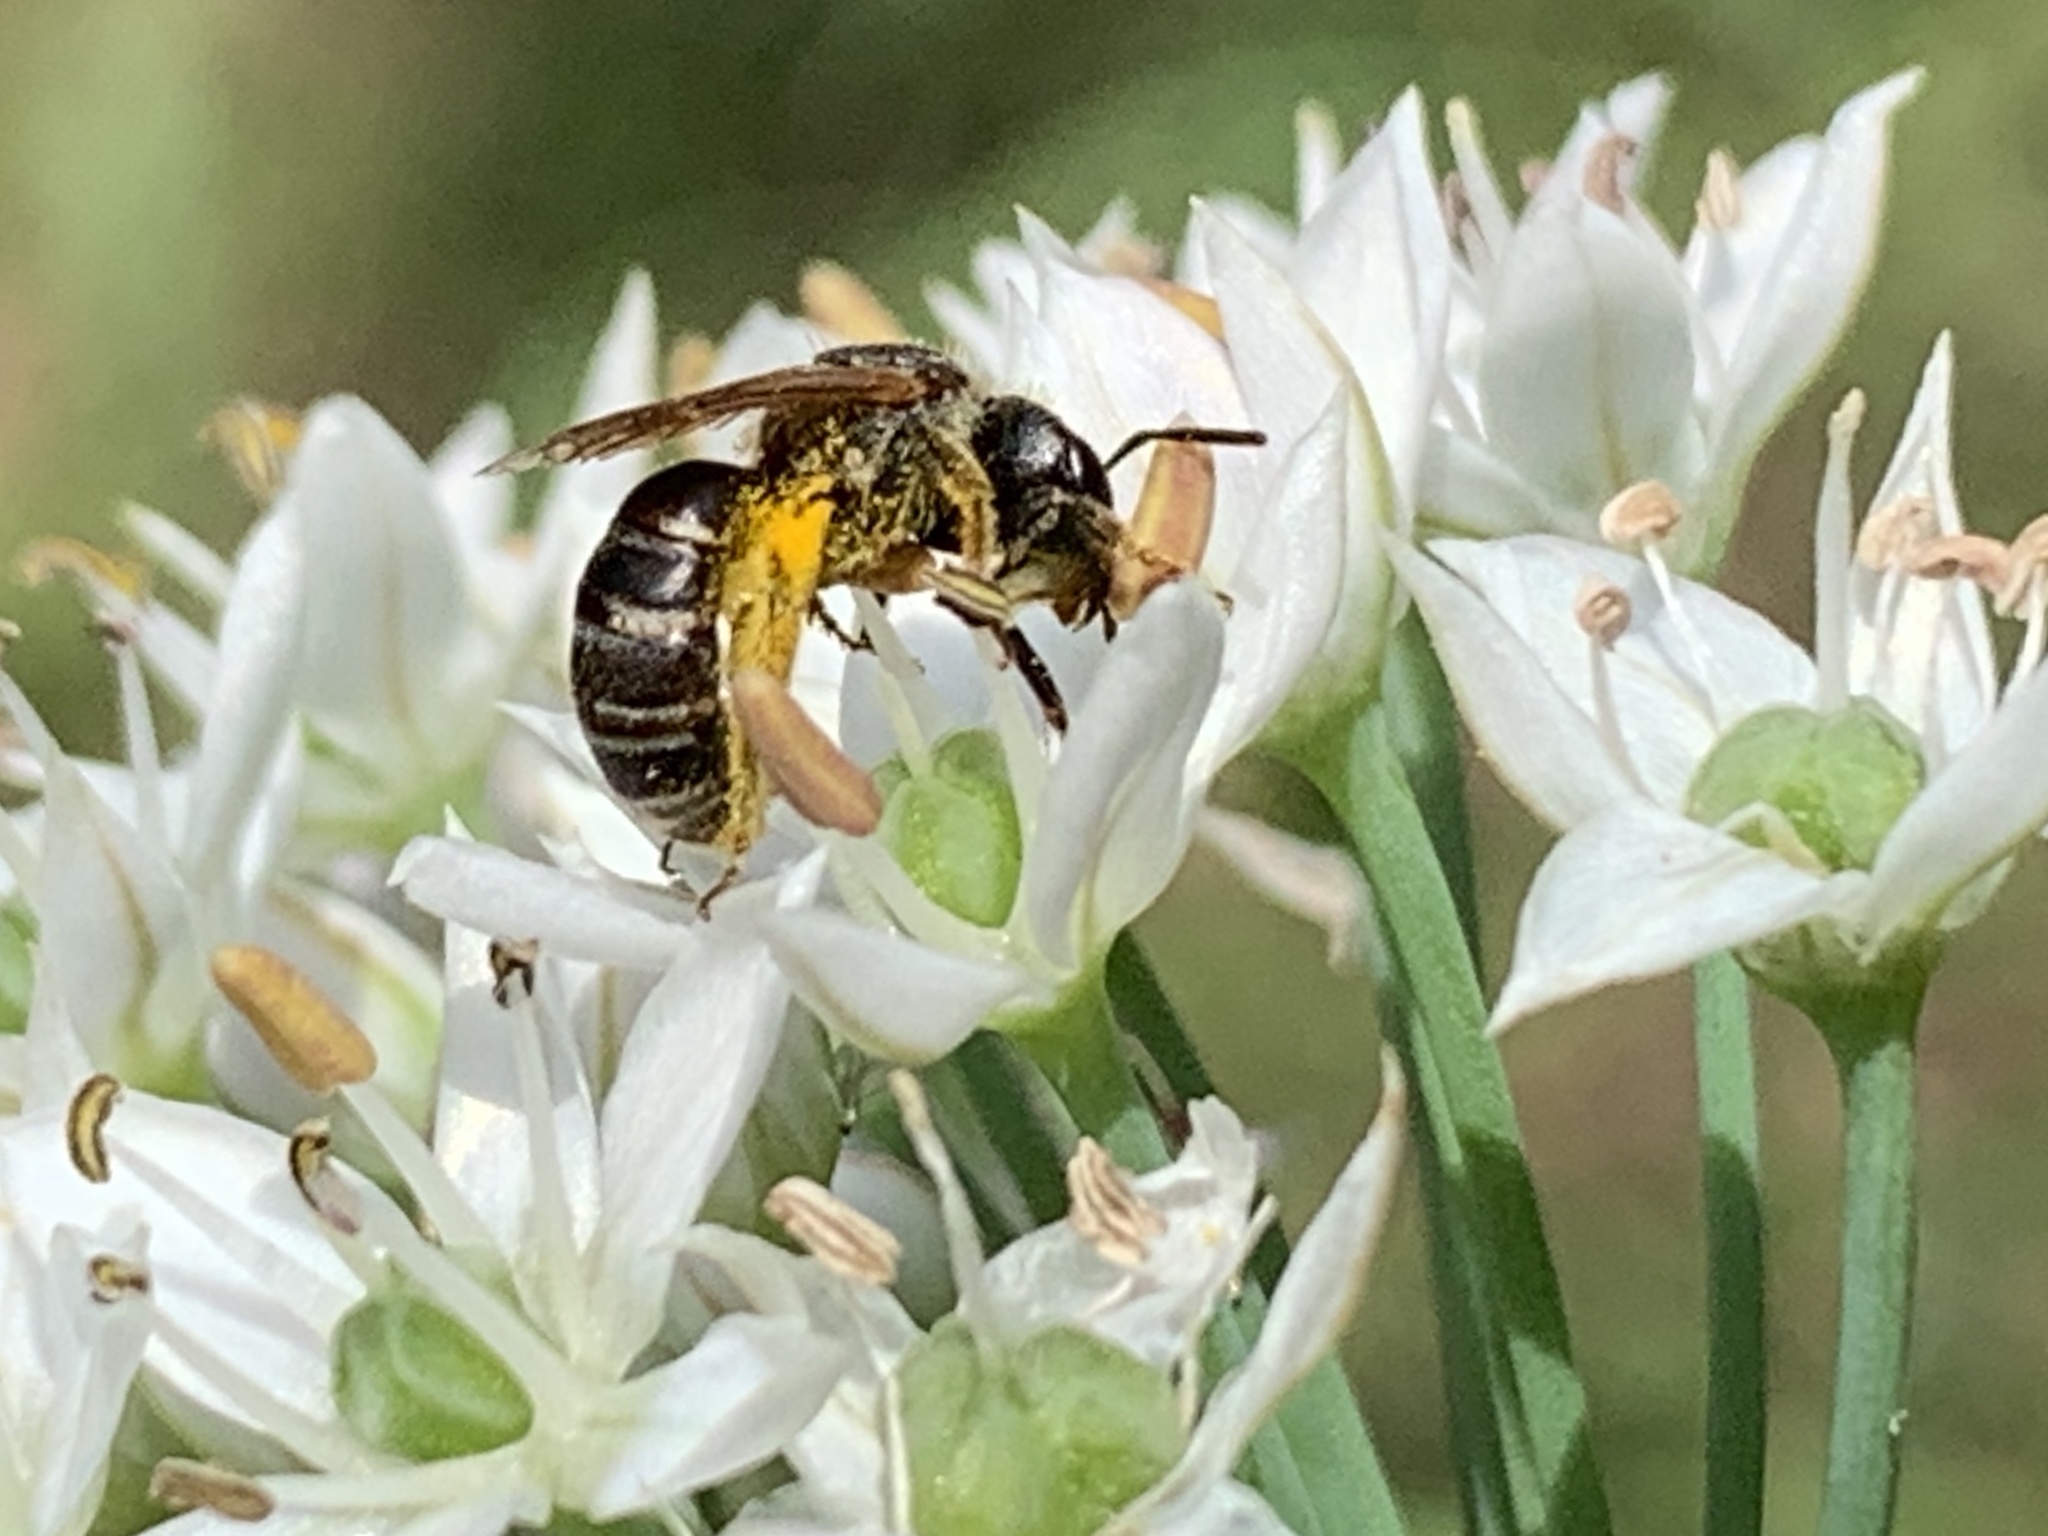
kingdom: Animalia
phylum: Arthropoda
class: Insecta
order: Hymenoptera
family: Halictidae
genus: Halictus
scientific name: Halictus ligatus
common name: Ligated furrow bee
